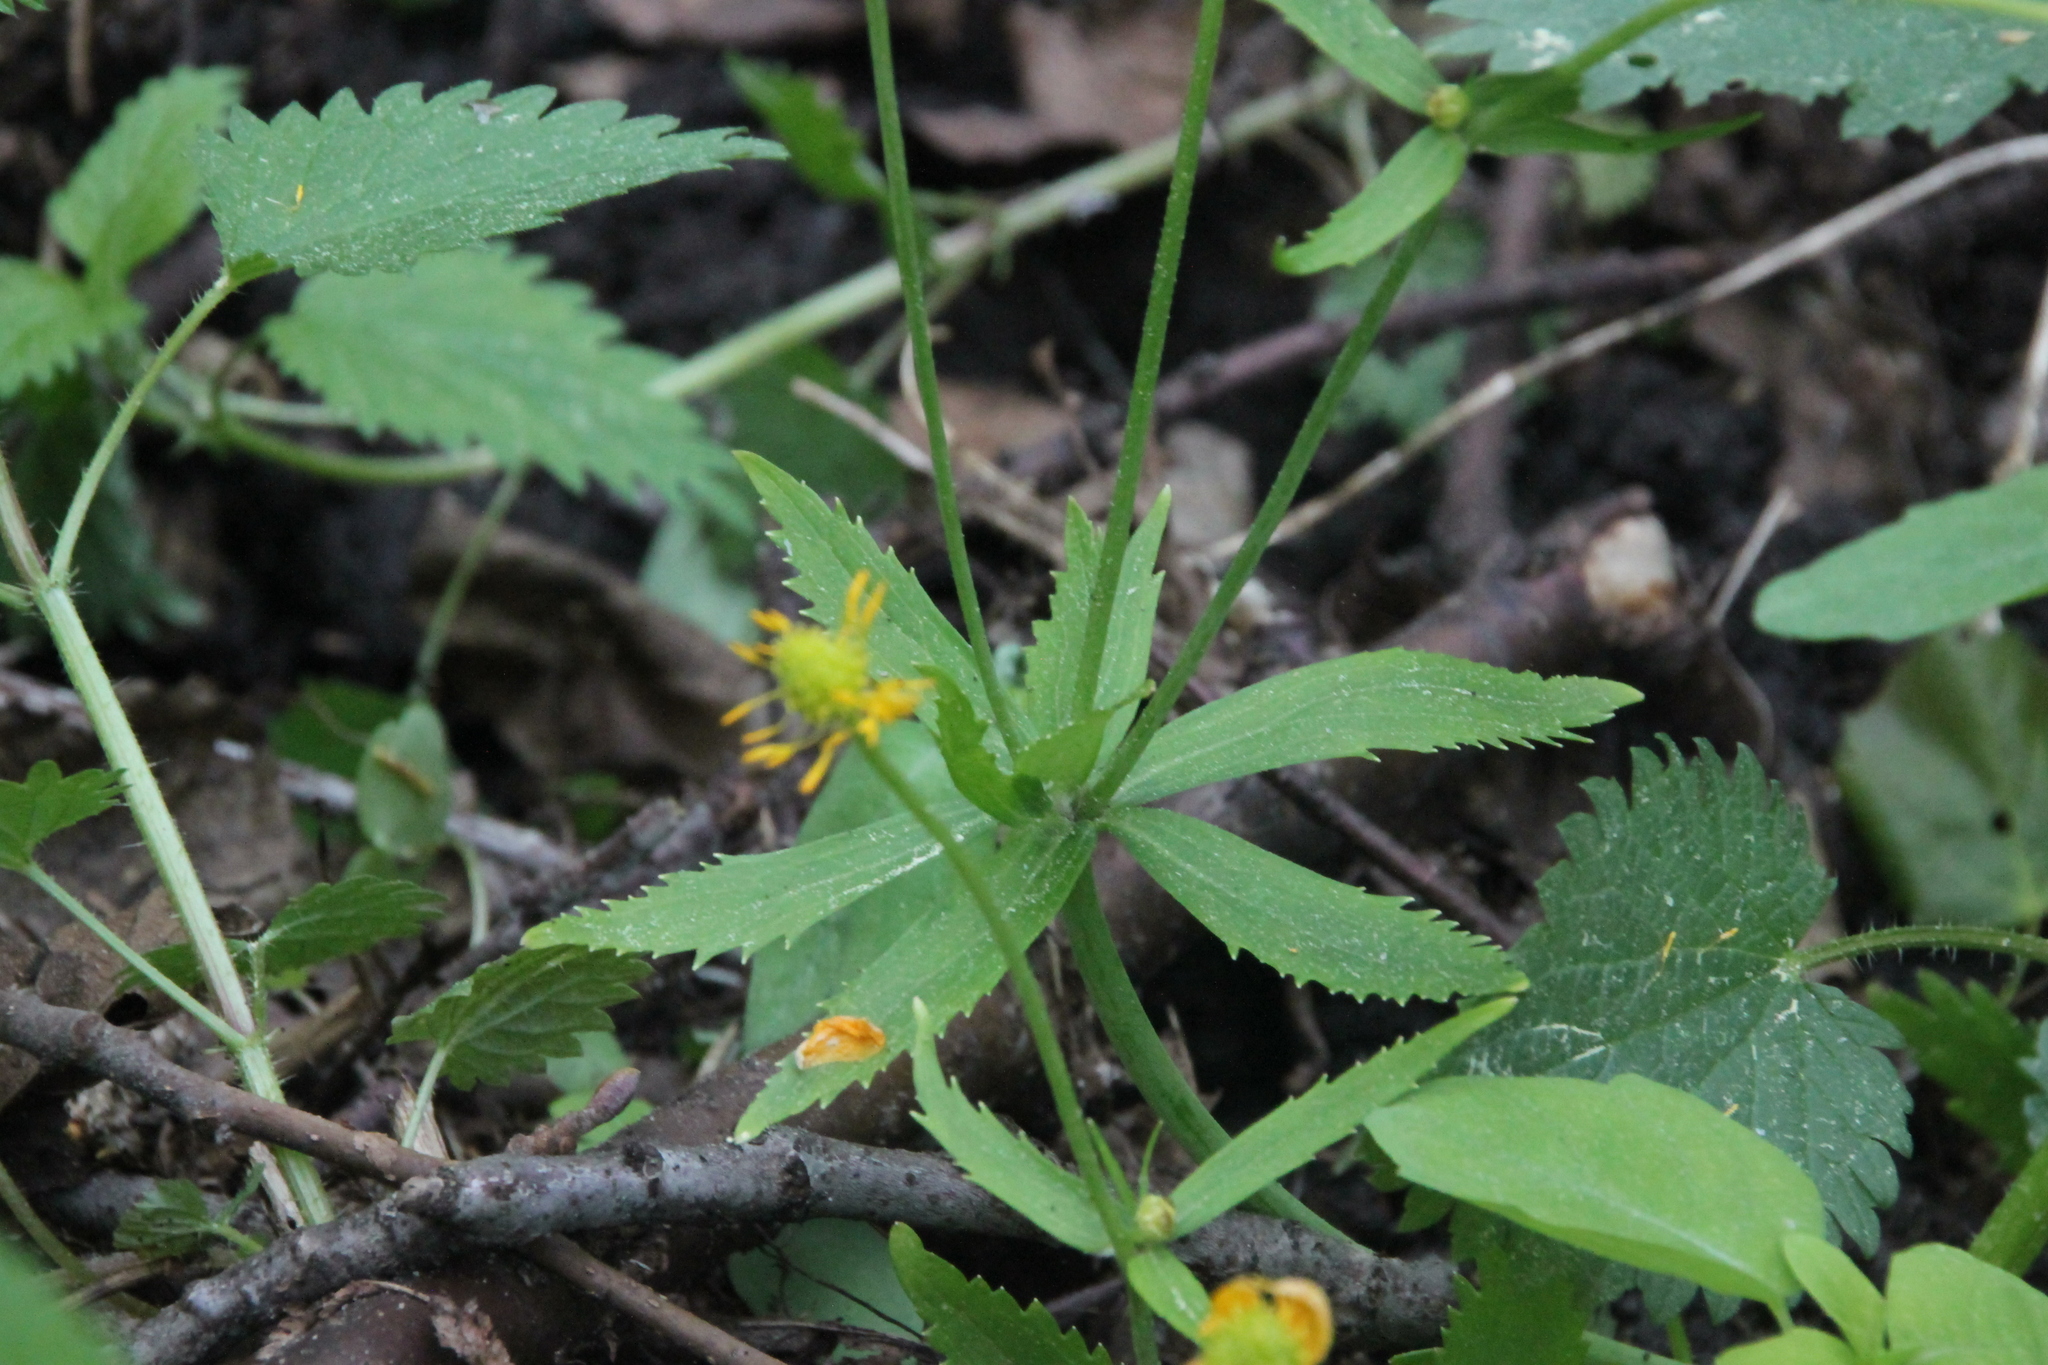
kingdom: Plantae
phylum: Tracheophyta
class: Magnoliopsida
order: Ranunculales
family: Ranunculaceae
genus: Ranunculus
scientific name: Ranunculus cassubicus
